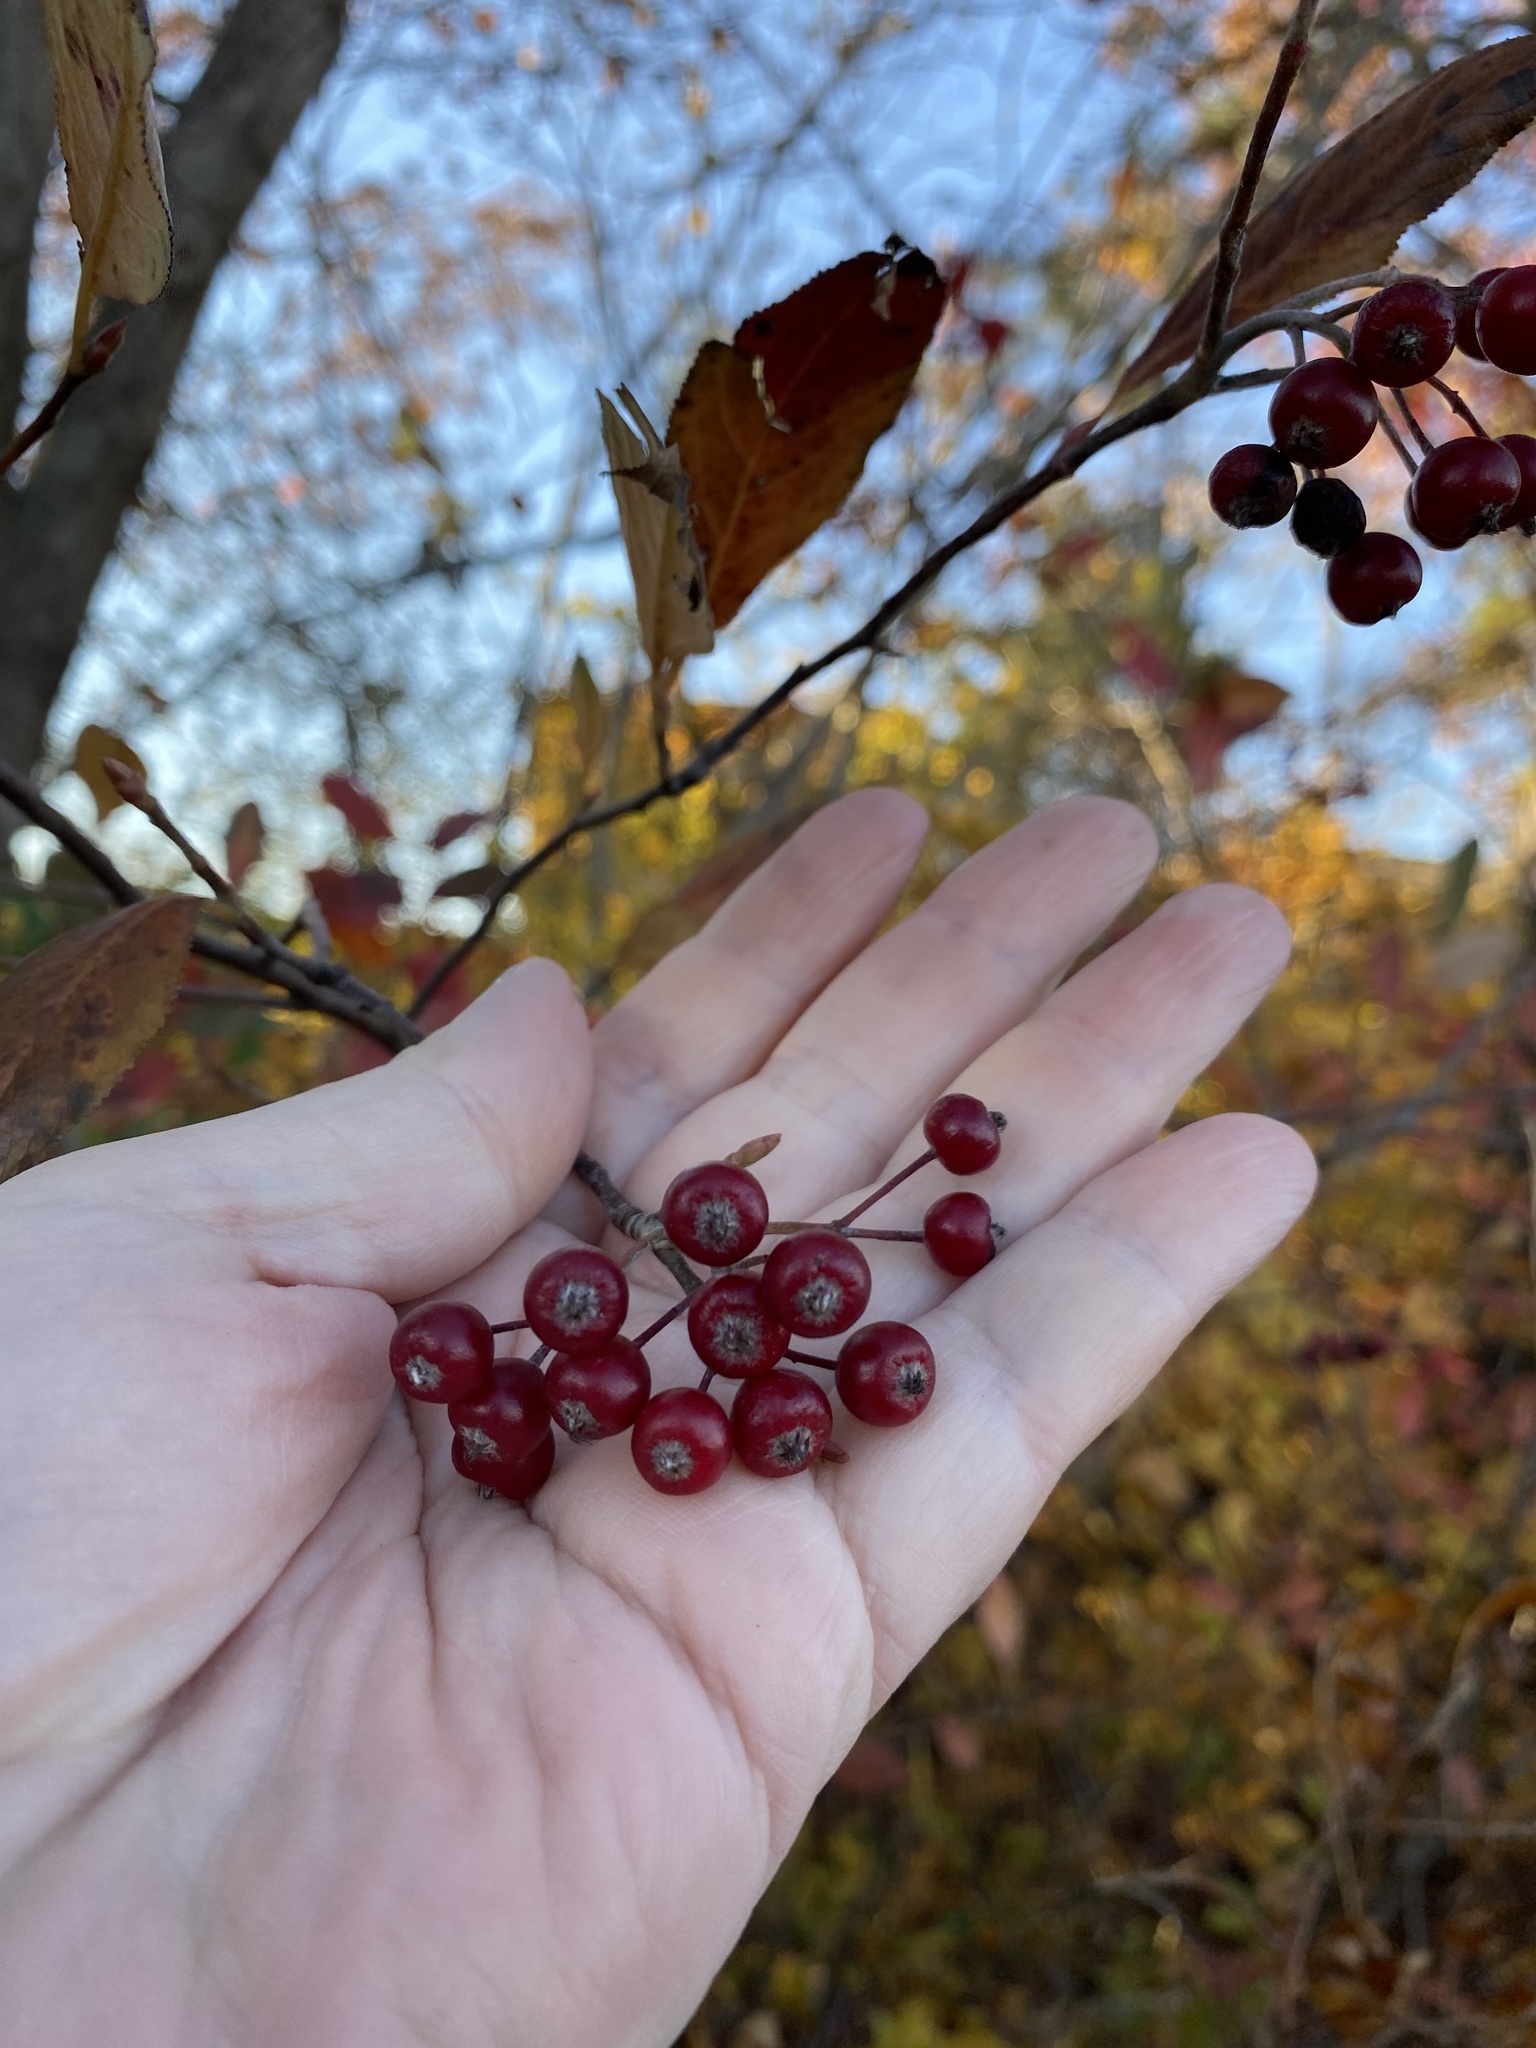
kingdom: Plantae
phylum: Tracheophyta
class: Magnoliopsida
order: Rosales
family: Rosaceae
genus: Aronia
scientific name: Aronia arbutifolia
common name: Red chokeberry
